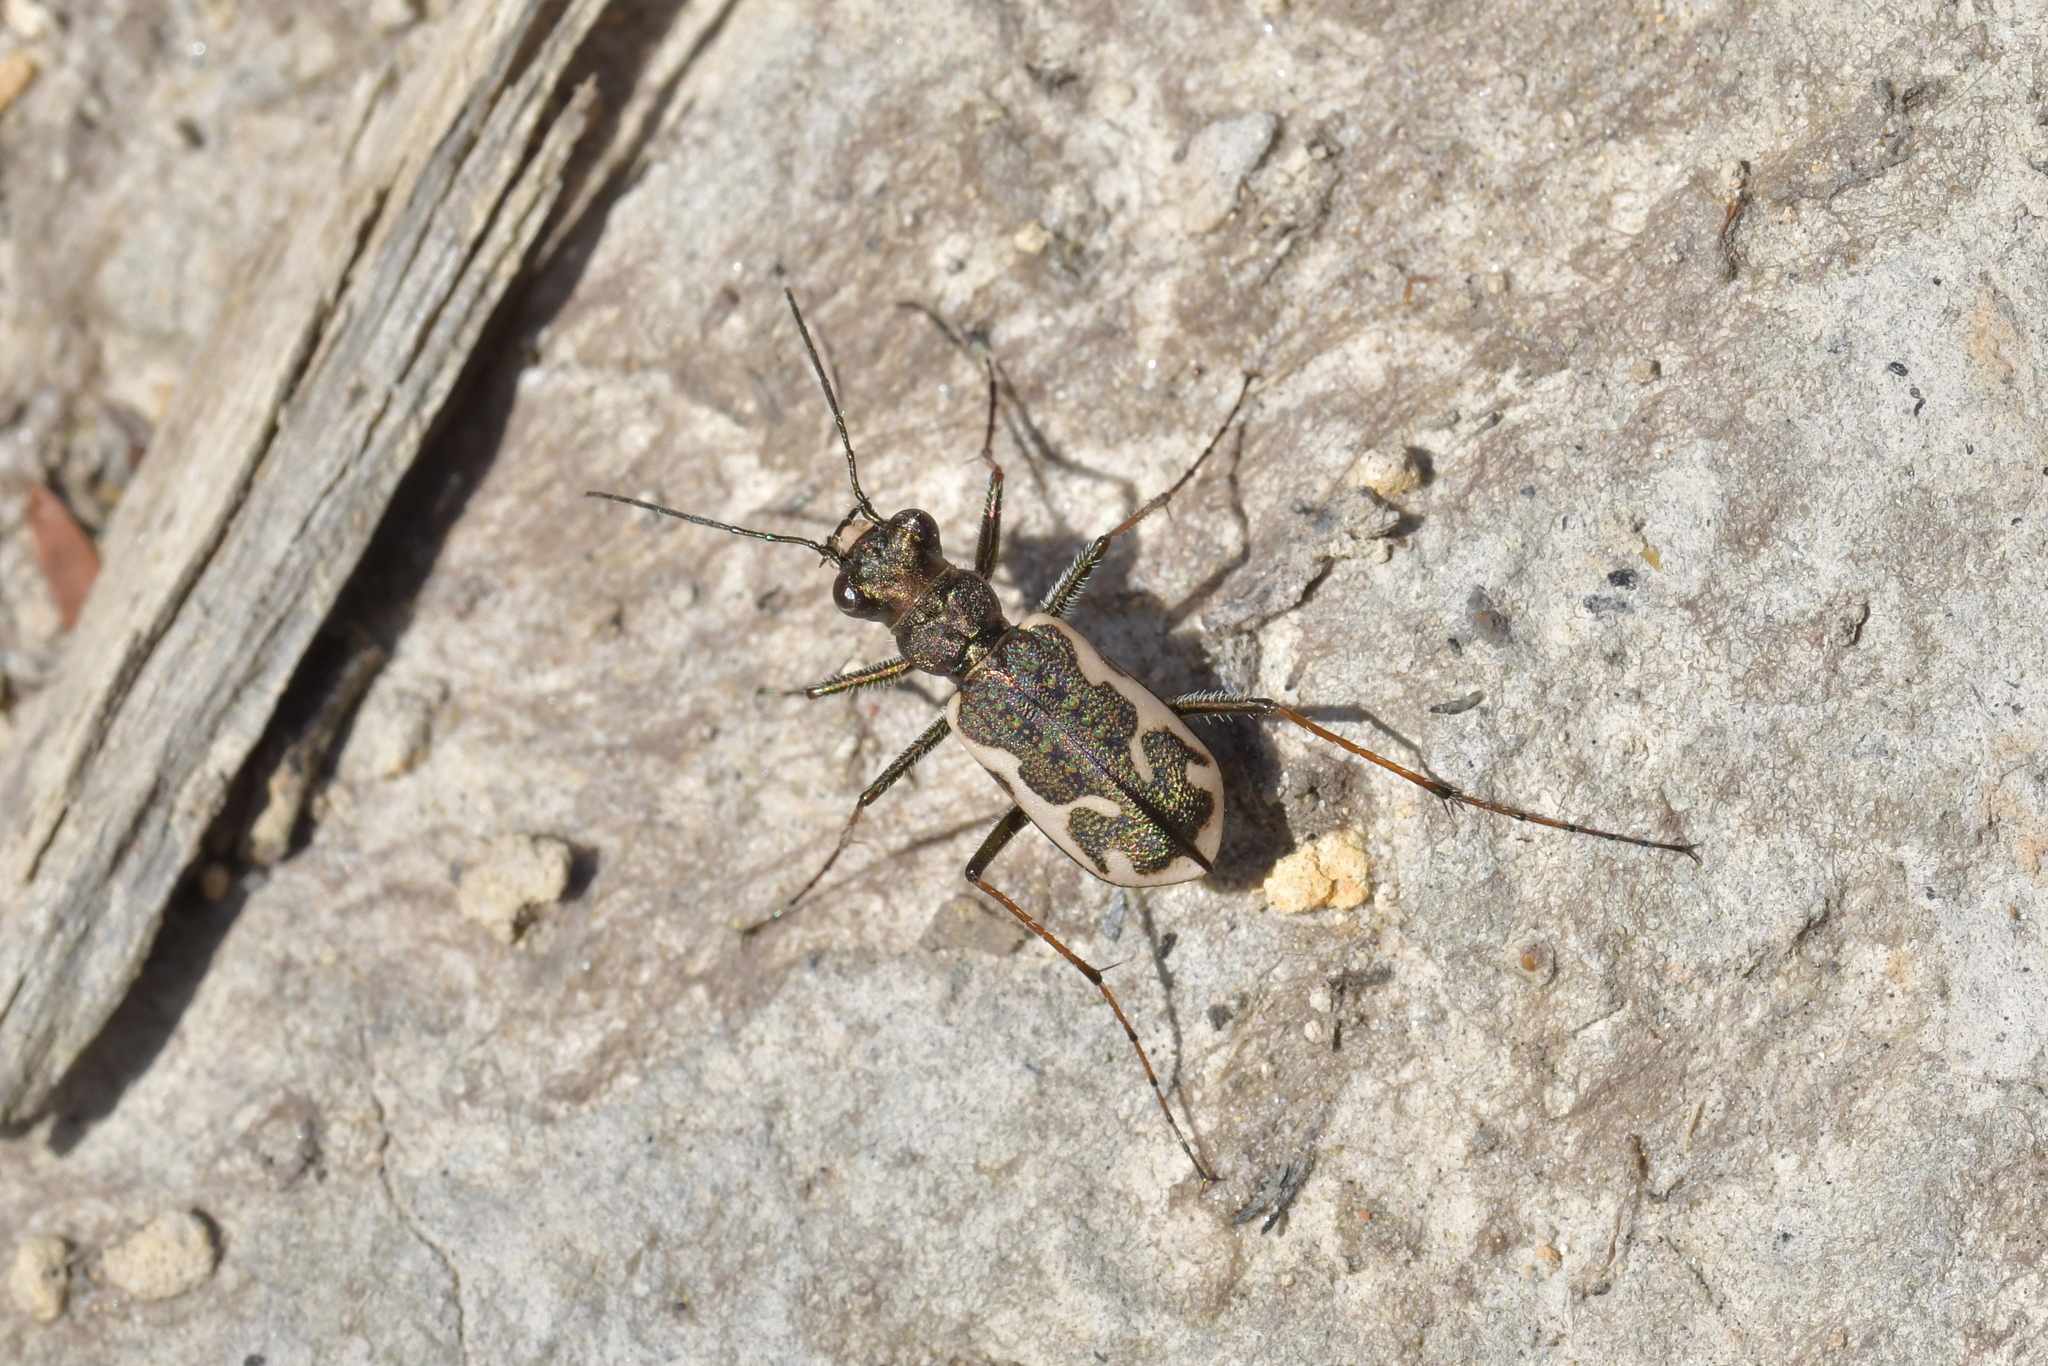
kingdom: Animalia
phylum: Arthropoda
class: Insecta
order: Coleoptera
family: Carabidae
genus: Neocicindela
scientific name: Neocicindela tuberculata
